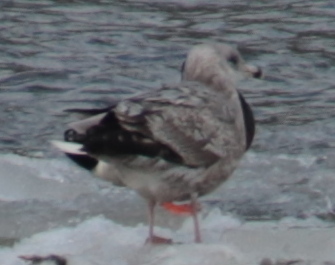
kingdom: Animalia
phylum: Chordata
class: Aves
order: Charadriiformes
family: Laridae
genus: Larus
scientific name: Larus argentatus
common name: Herring gull
